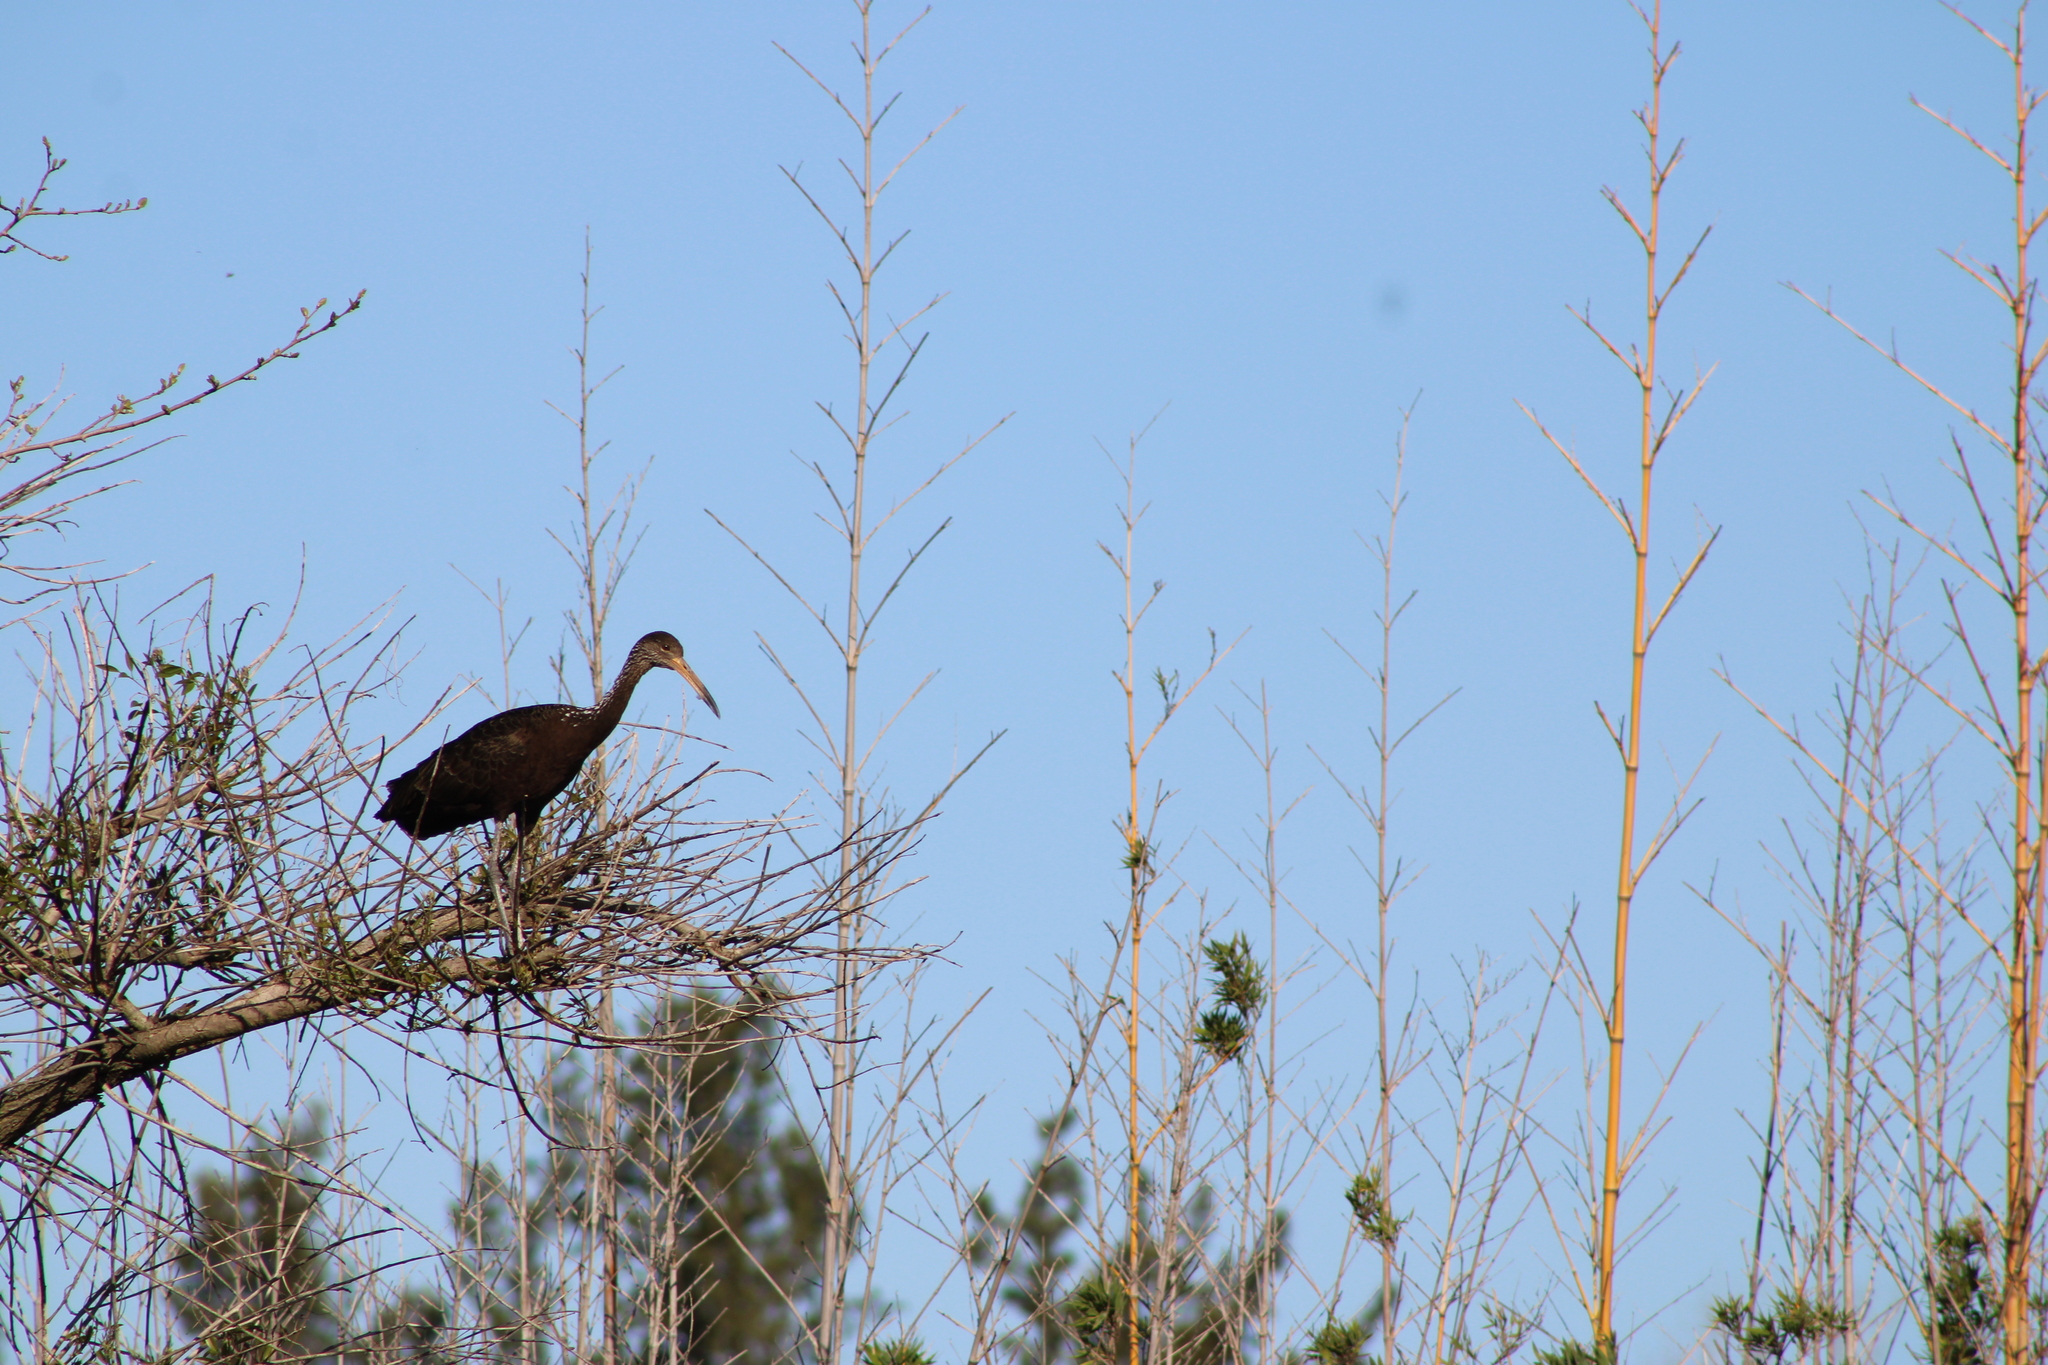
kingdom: Animalia
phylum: Chordata
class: Aves
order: Gruiformes
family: Aramidae
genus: Aramus
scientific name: Aramus guarauna
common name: Limpkin
